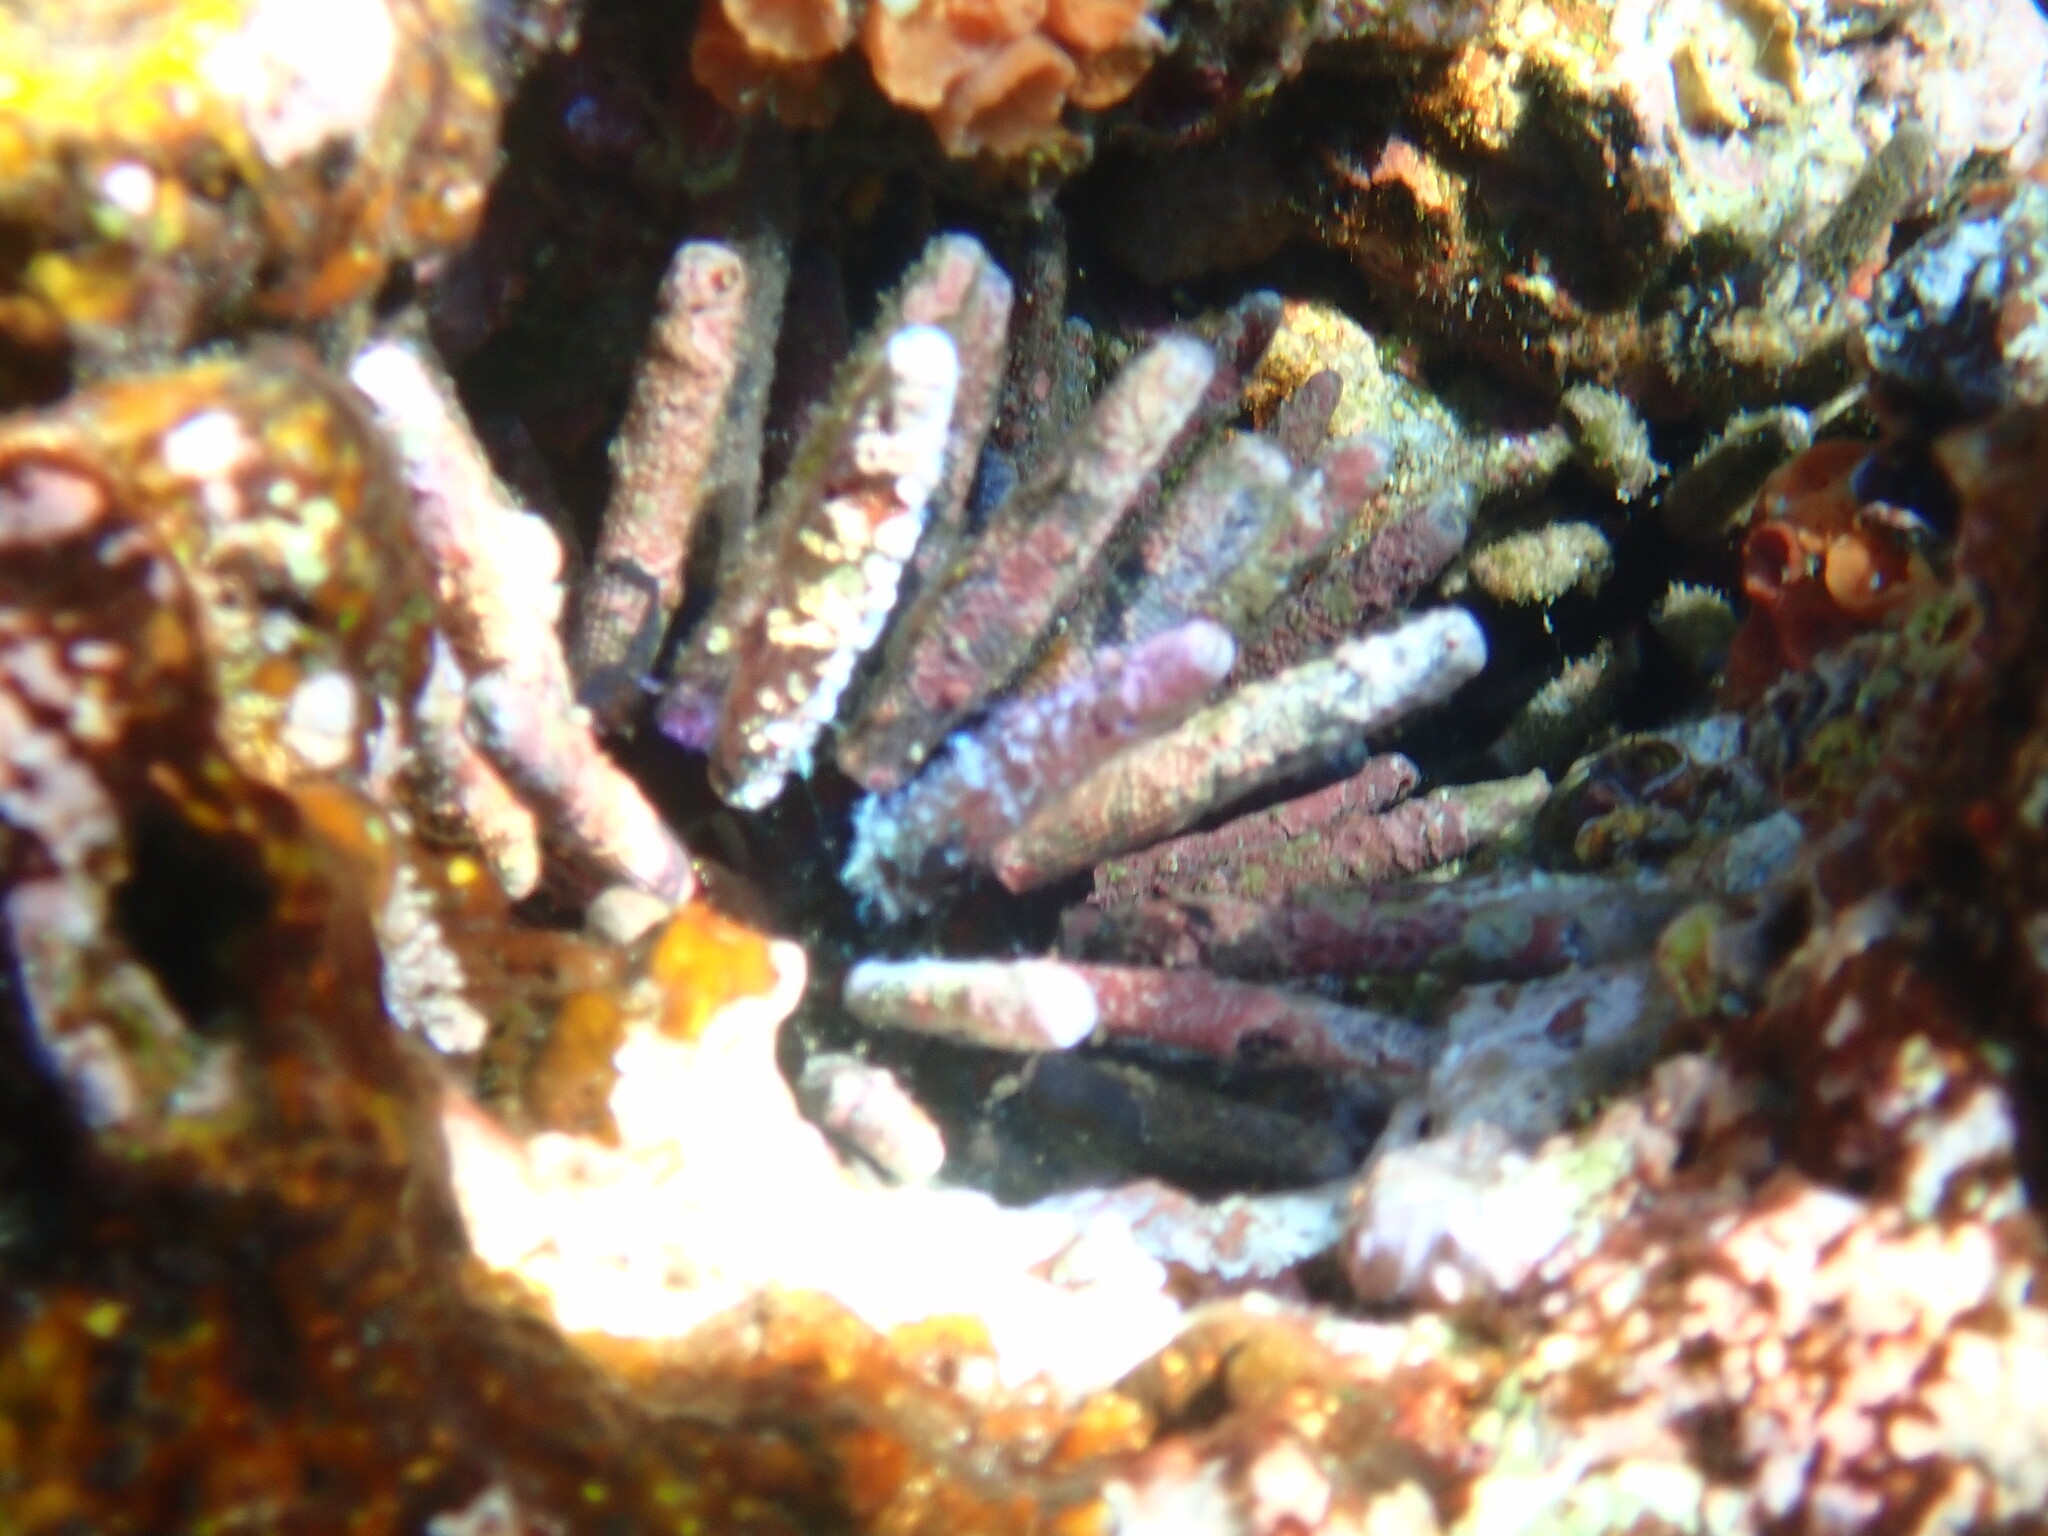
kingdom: Animalia
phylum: Echinodermata
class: Echinoidea
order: Cidaroida
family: Cidaridae
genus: Eucidaris
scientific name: Eucidaris galapagensis
